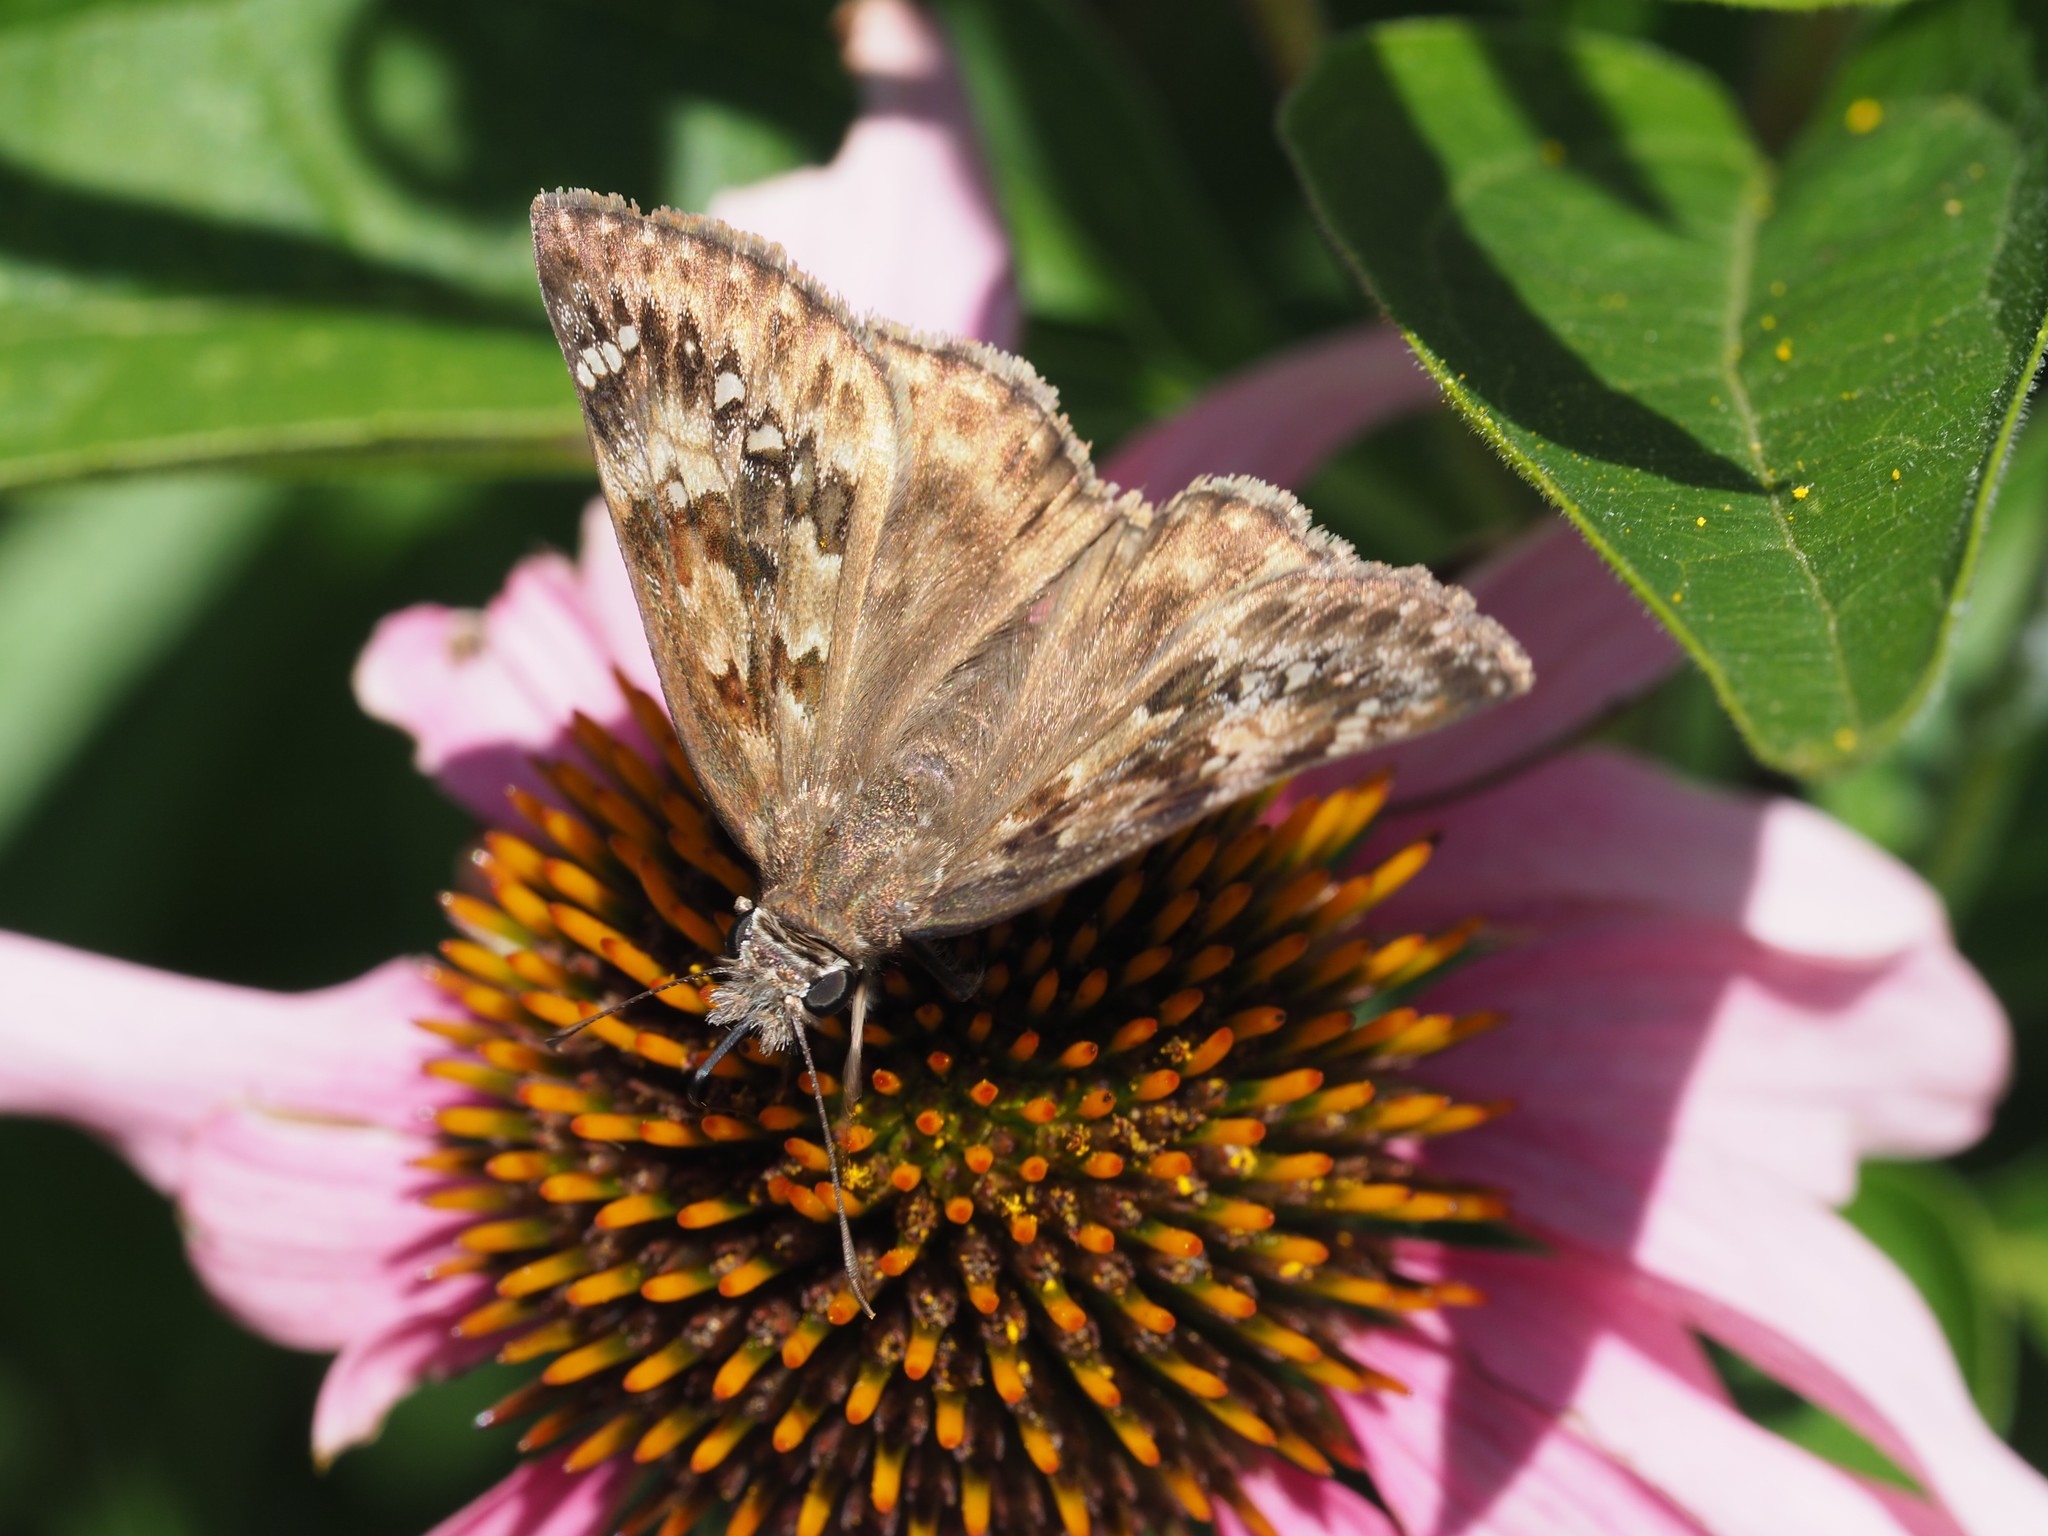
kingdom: Animalia
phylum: Arthropoda
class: Insecta
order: Lepidoptera
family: Hesperiidae
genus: Erynnis
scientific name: Erynnis horatius
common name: Horace's duskywing
